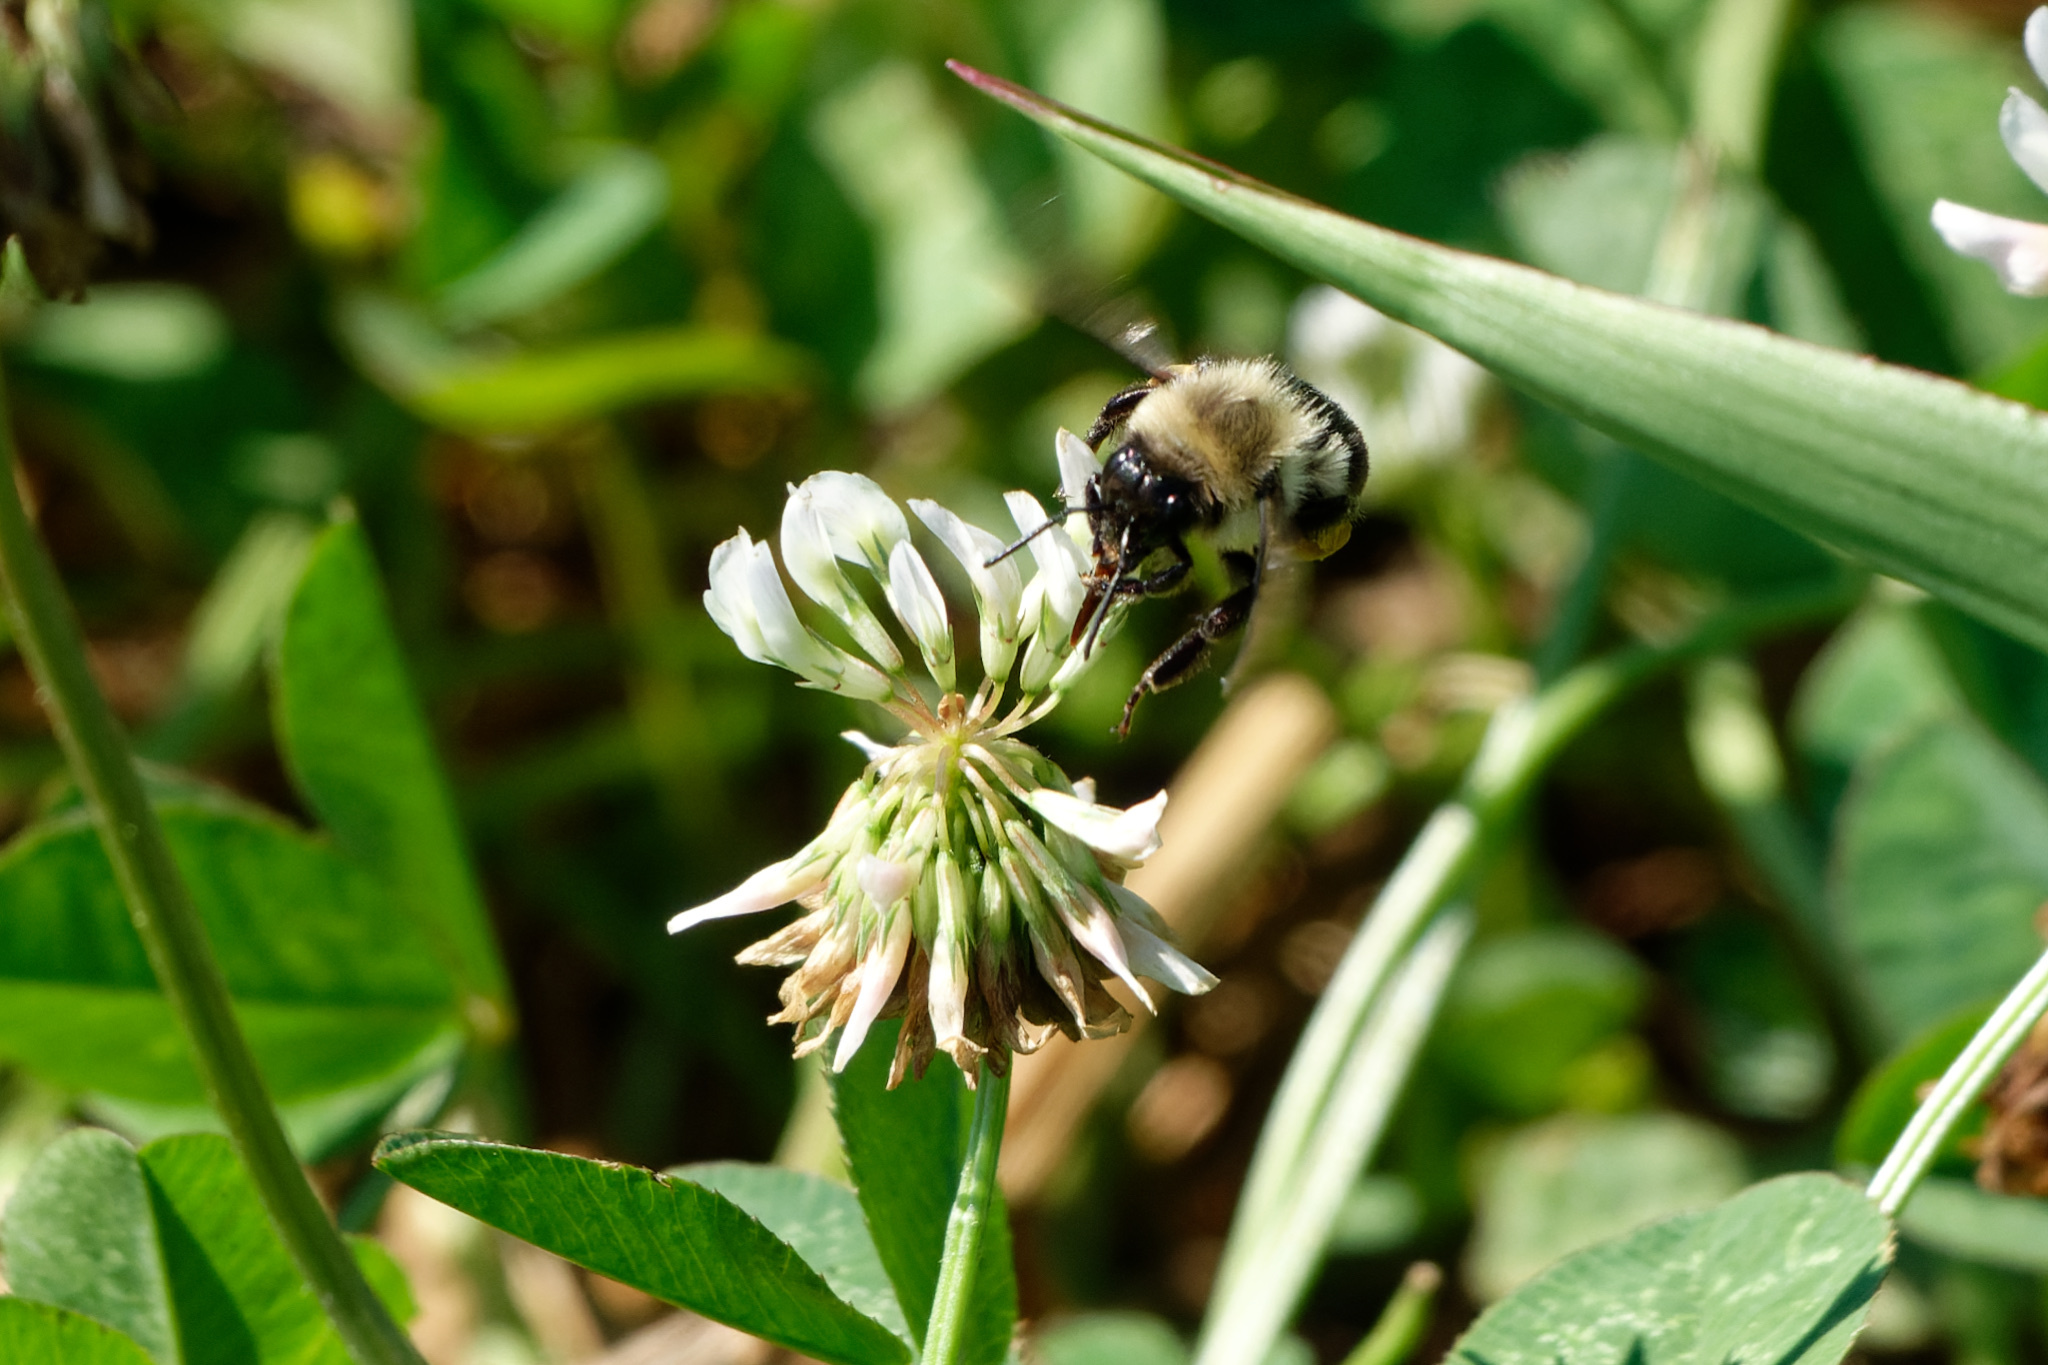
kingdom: Animalia
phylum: Arthropoda
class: Insecta
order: Hymenoptera
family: Apidae
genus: Bombus
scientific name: Bombus impatiens
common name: Common eastern bumble bee
